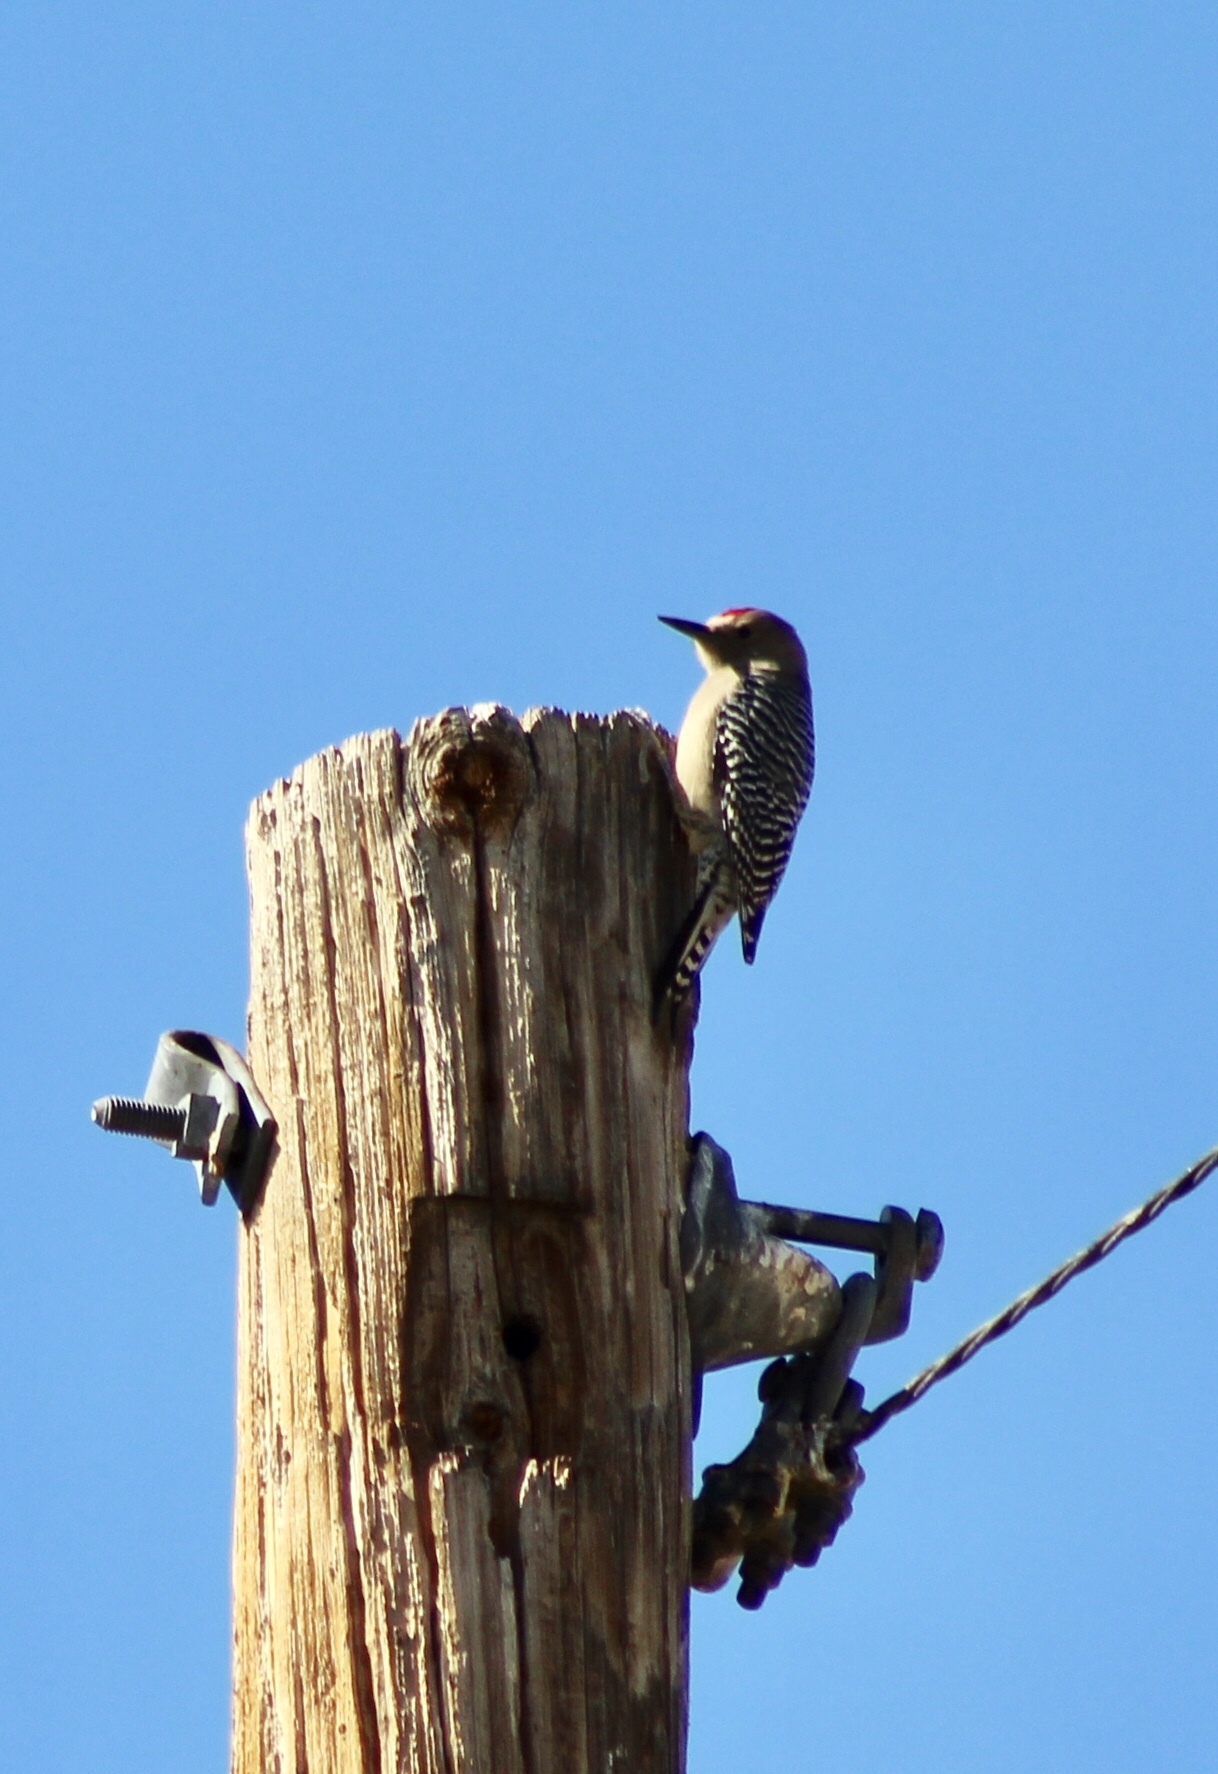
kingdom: Animalia
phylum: Chordata
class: Aves
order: Piciformes
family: Picidae
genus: Melanerpes
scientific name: Melanerpes uropygialis
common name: Gila woodpecker
